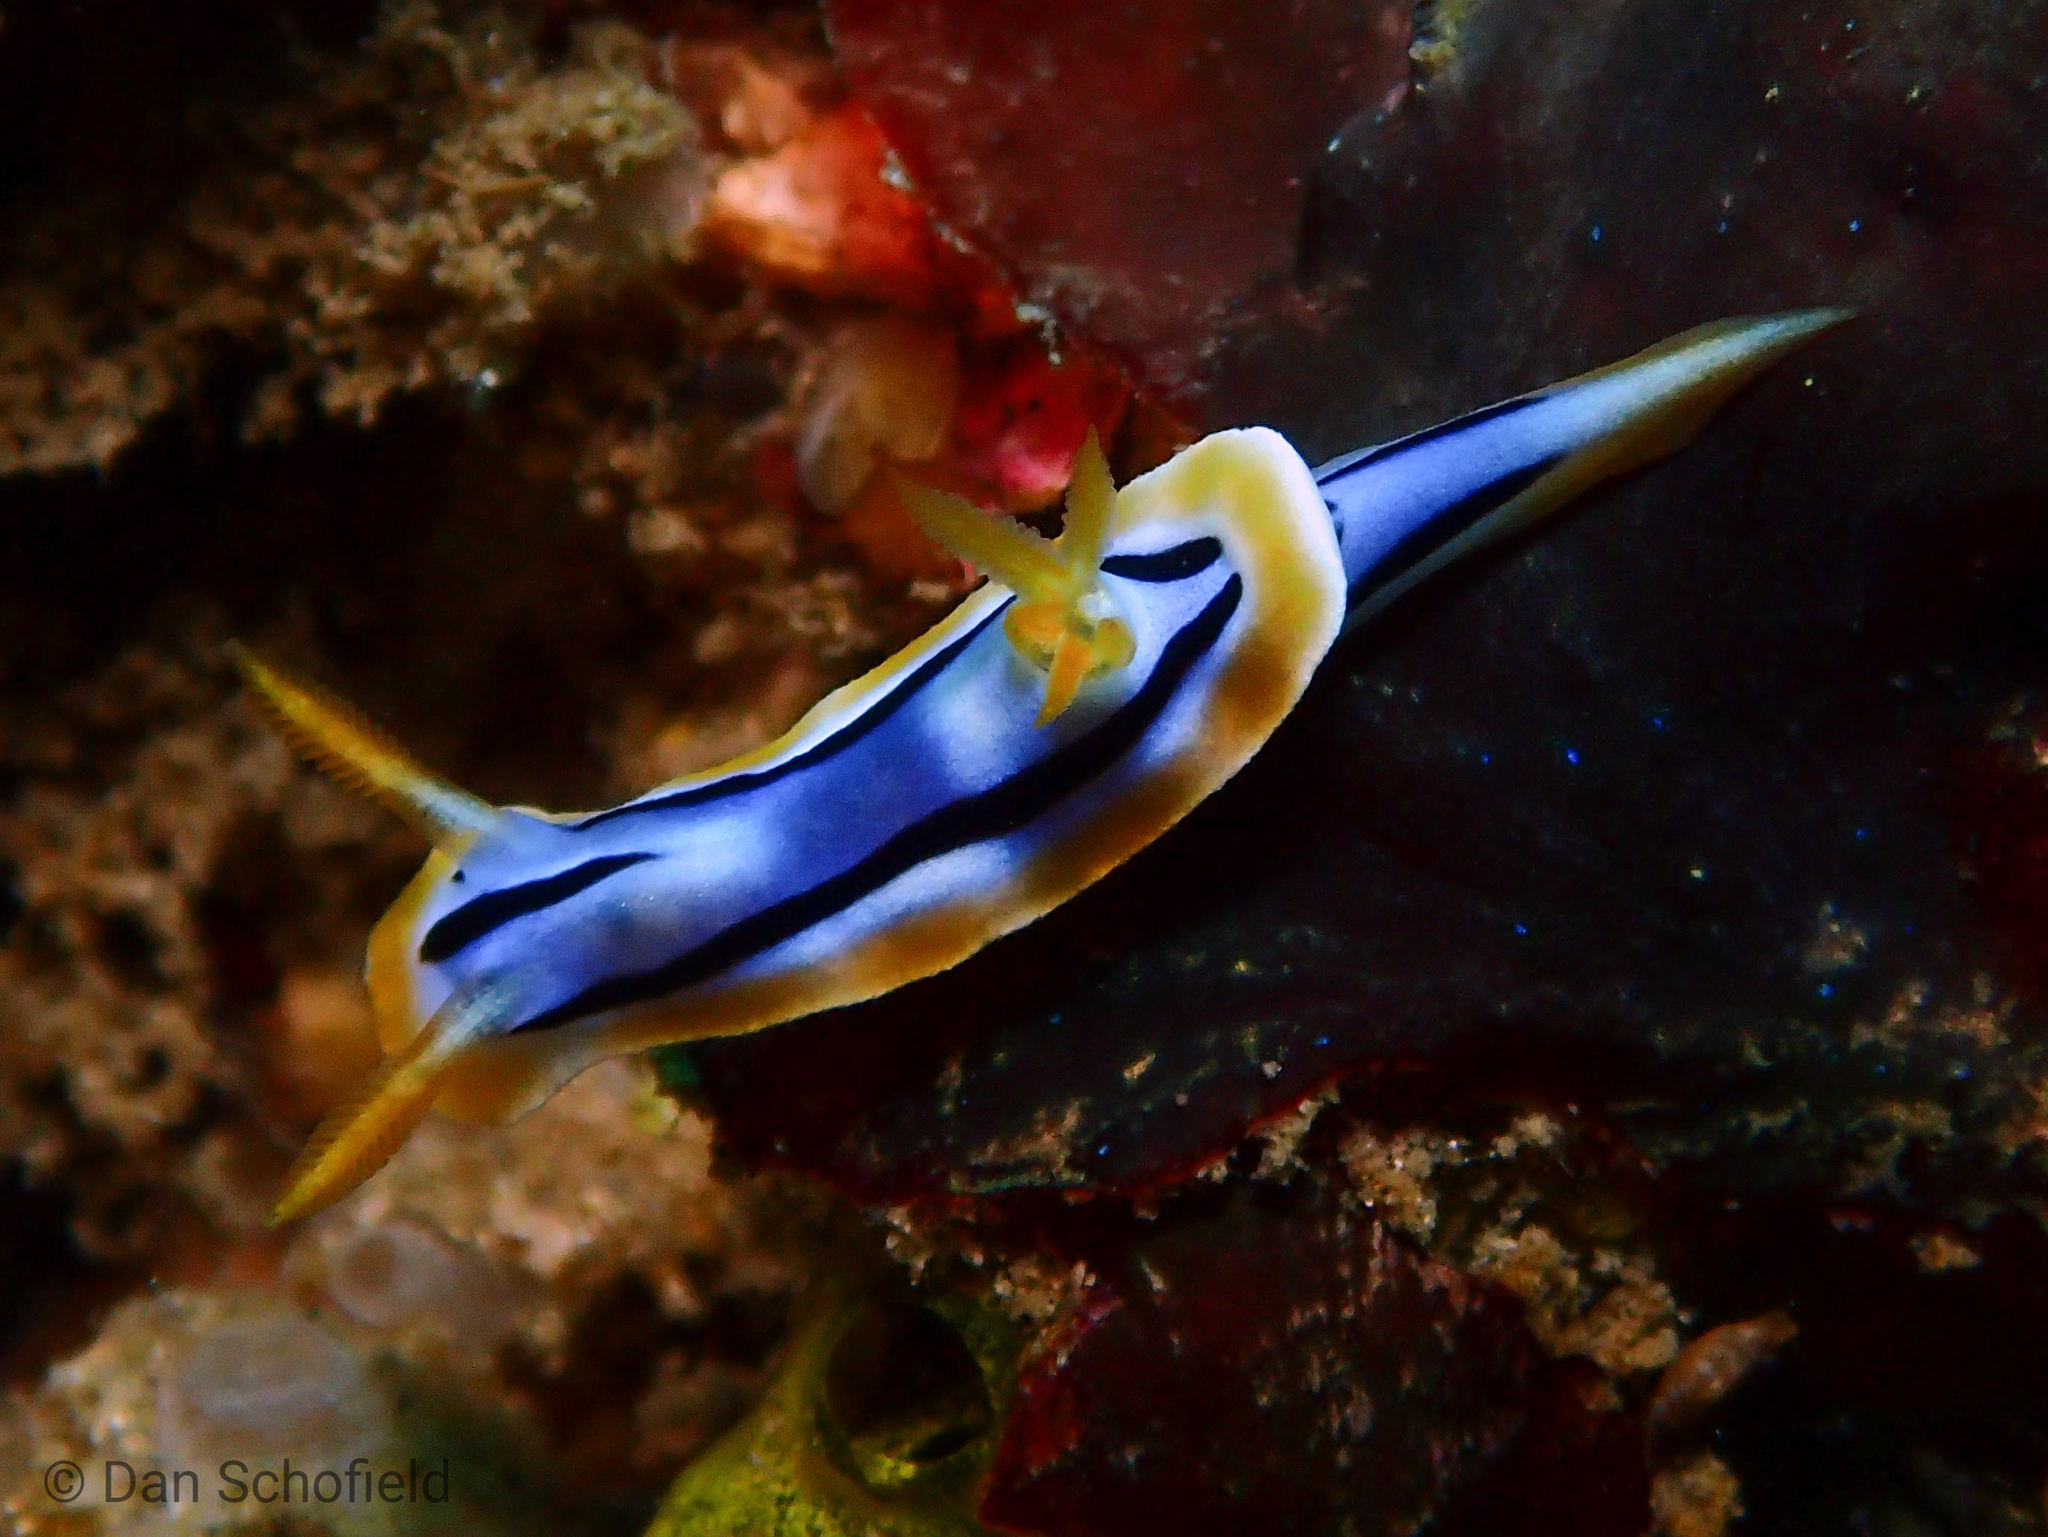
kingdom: Animalia
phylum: Mollusca
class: Gastropoda
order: Nudibranchia
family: Chromodorididae
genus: Chromodoris
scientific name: Chromodoris strigata
